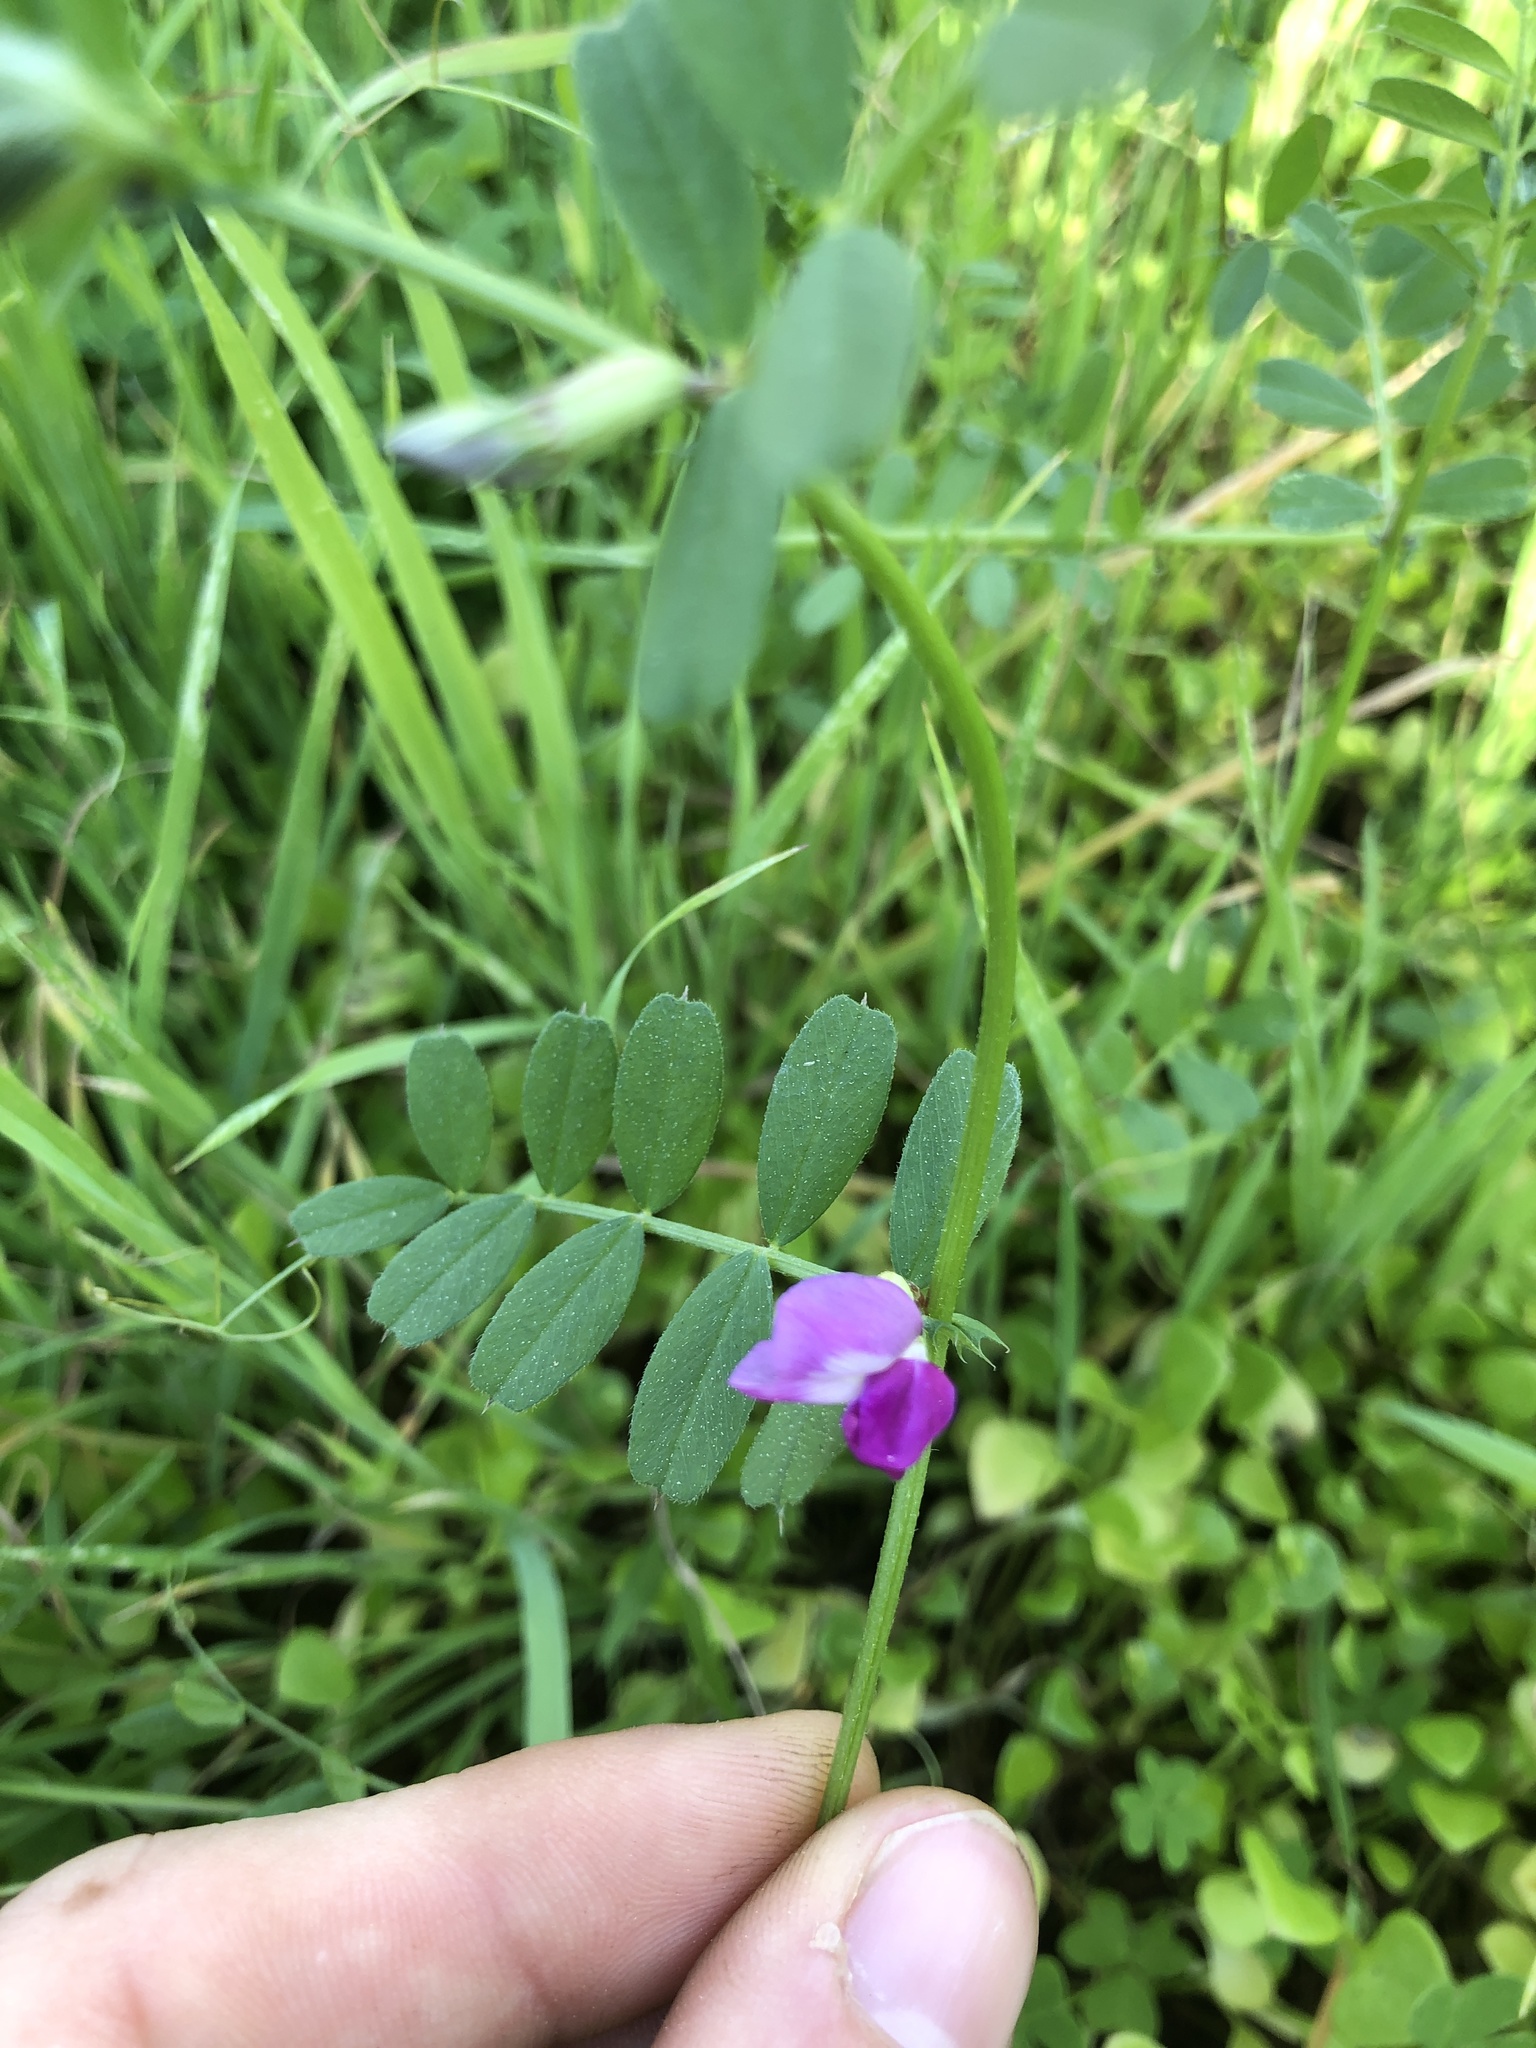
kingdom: Plantae
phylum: Tracheophyta
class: Magnoliopsida
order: Fabales
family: Fabaceae
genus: Vicia
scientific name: Vicia sativa
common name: Garden vetch
